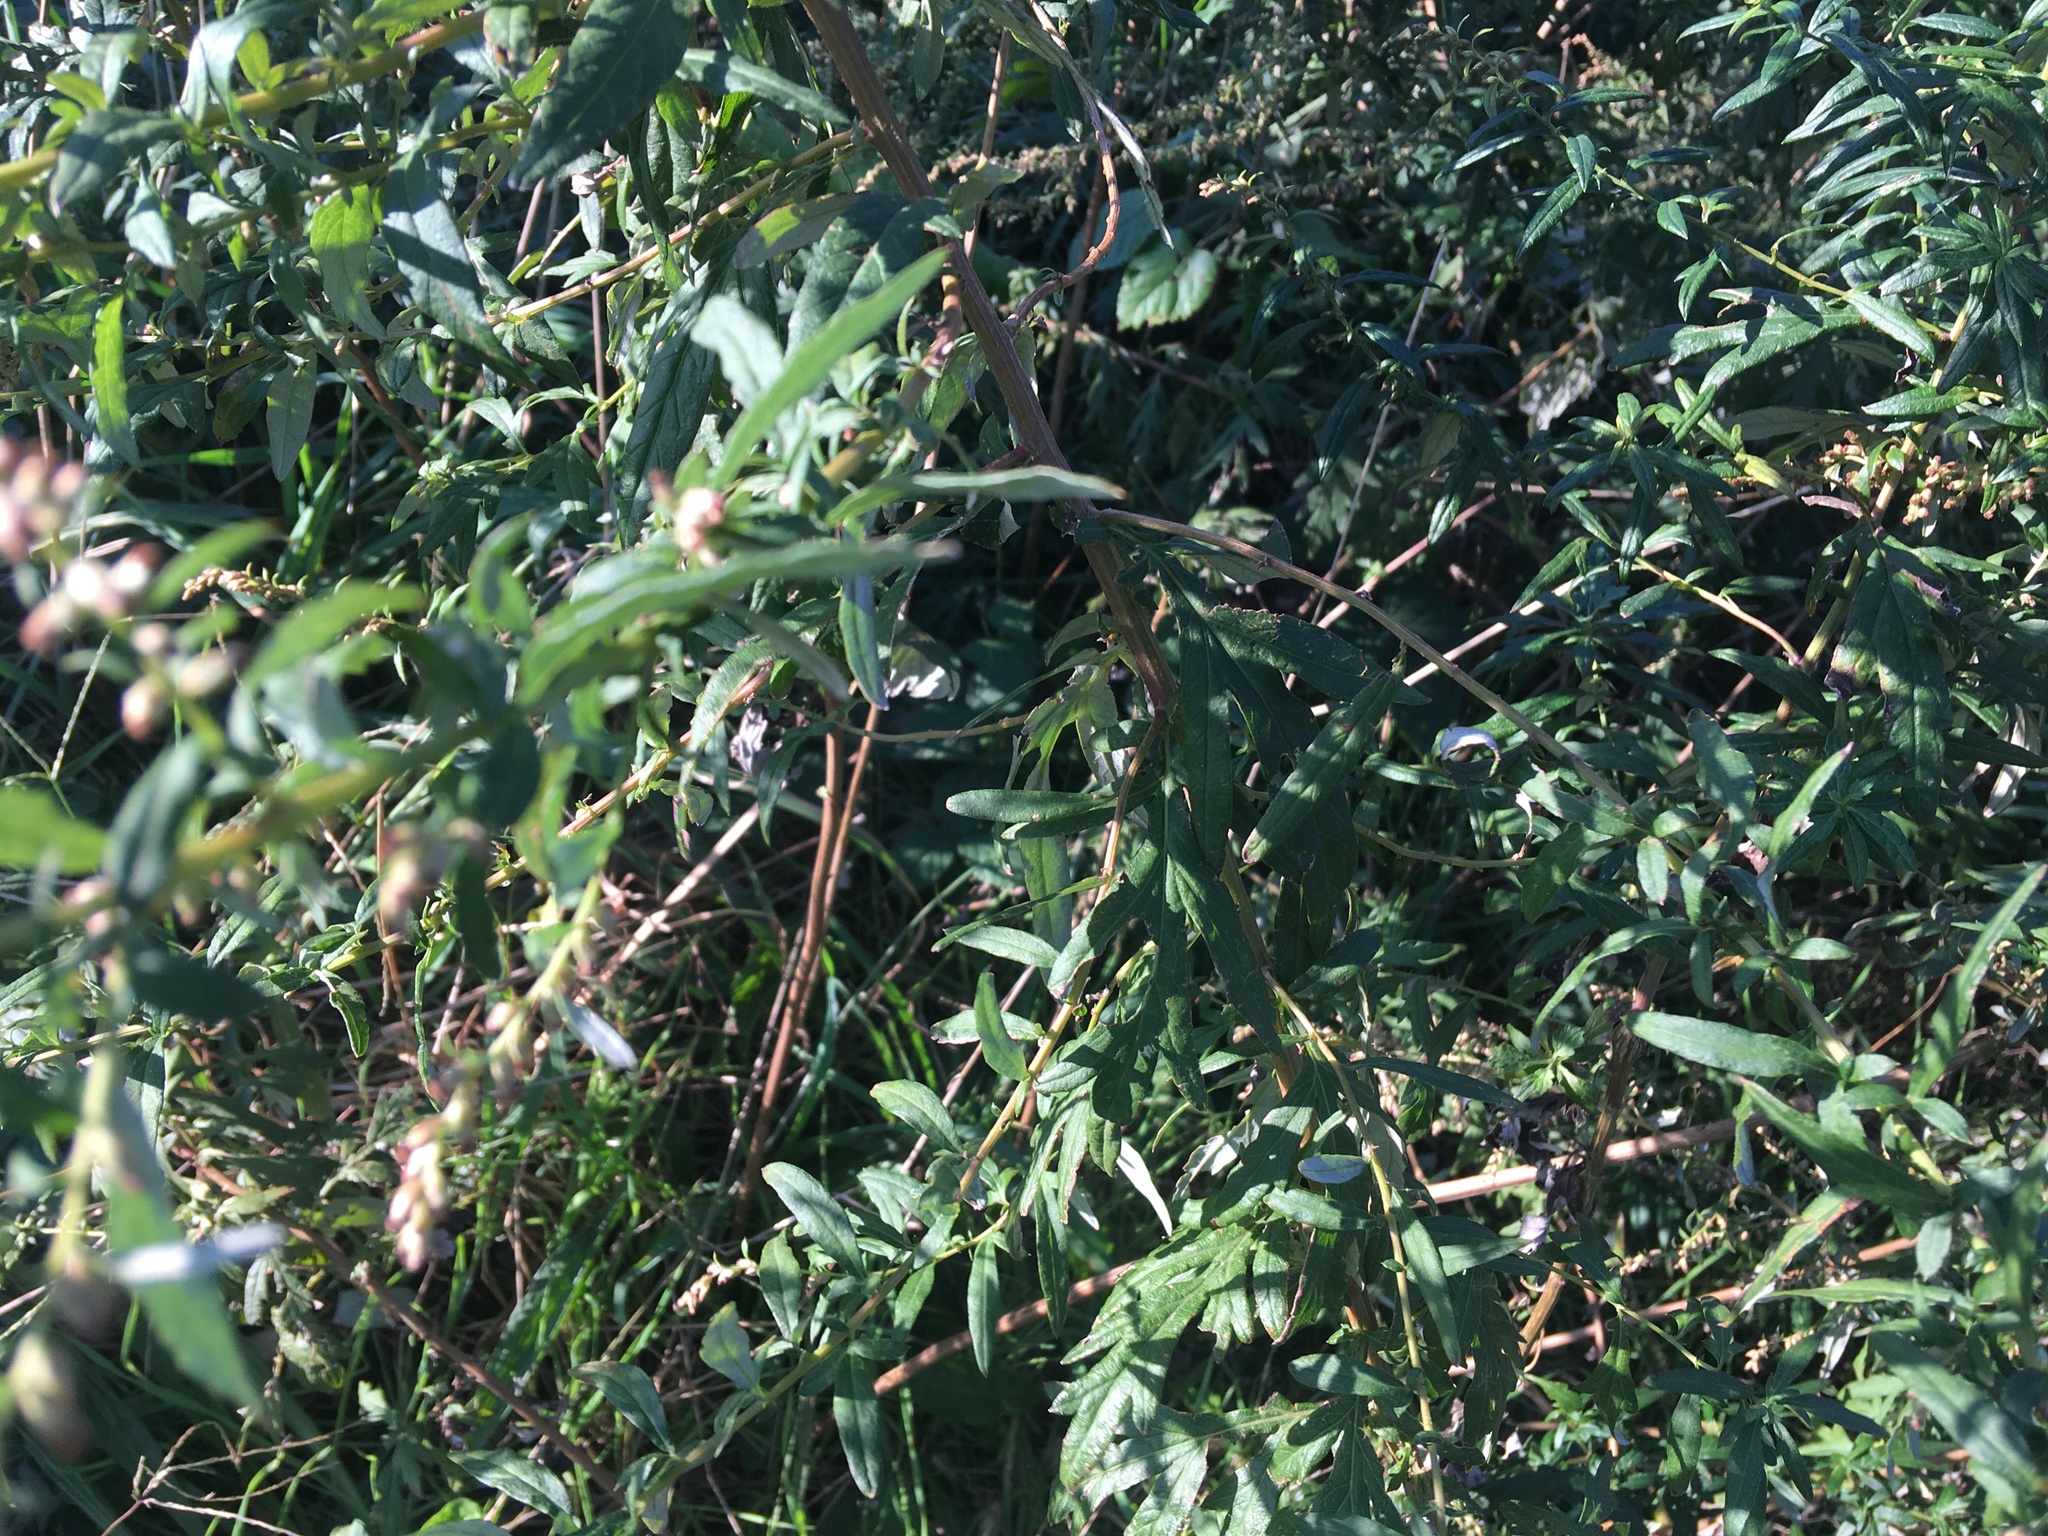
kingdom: Plantae
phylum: Tracheophyta
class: Magnoliopsida
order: Asterales
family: Asteraceae
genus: Artemisia
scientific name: Artemisia vulgaris
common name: Mugwort
